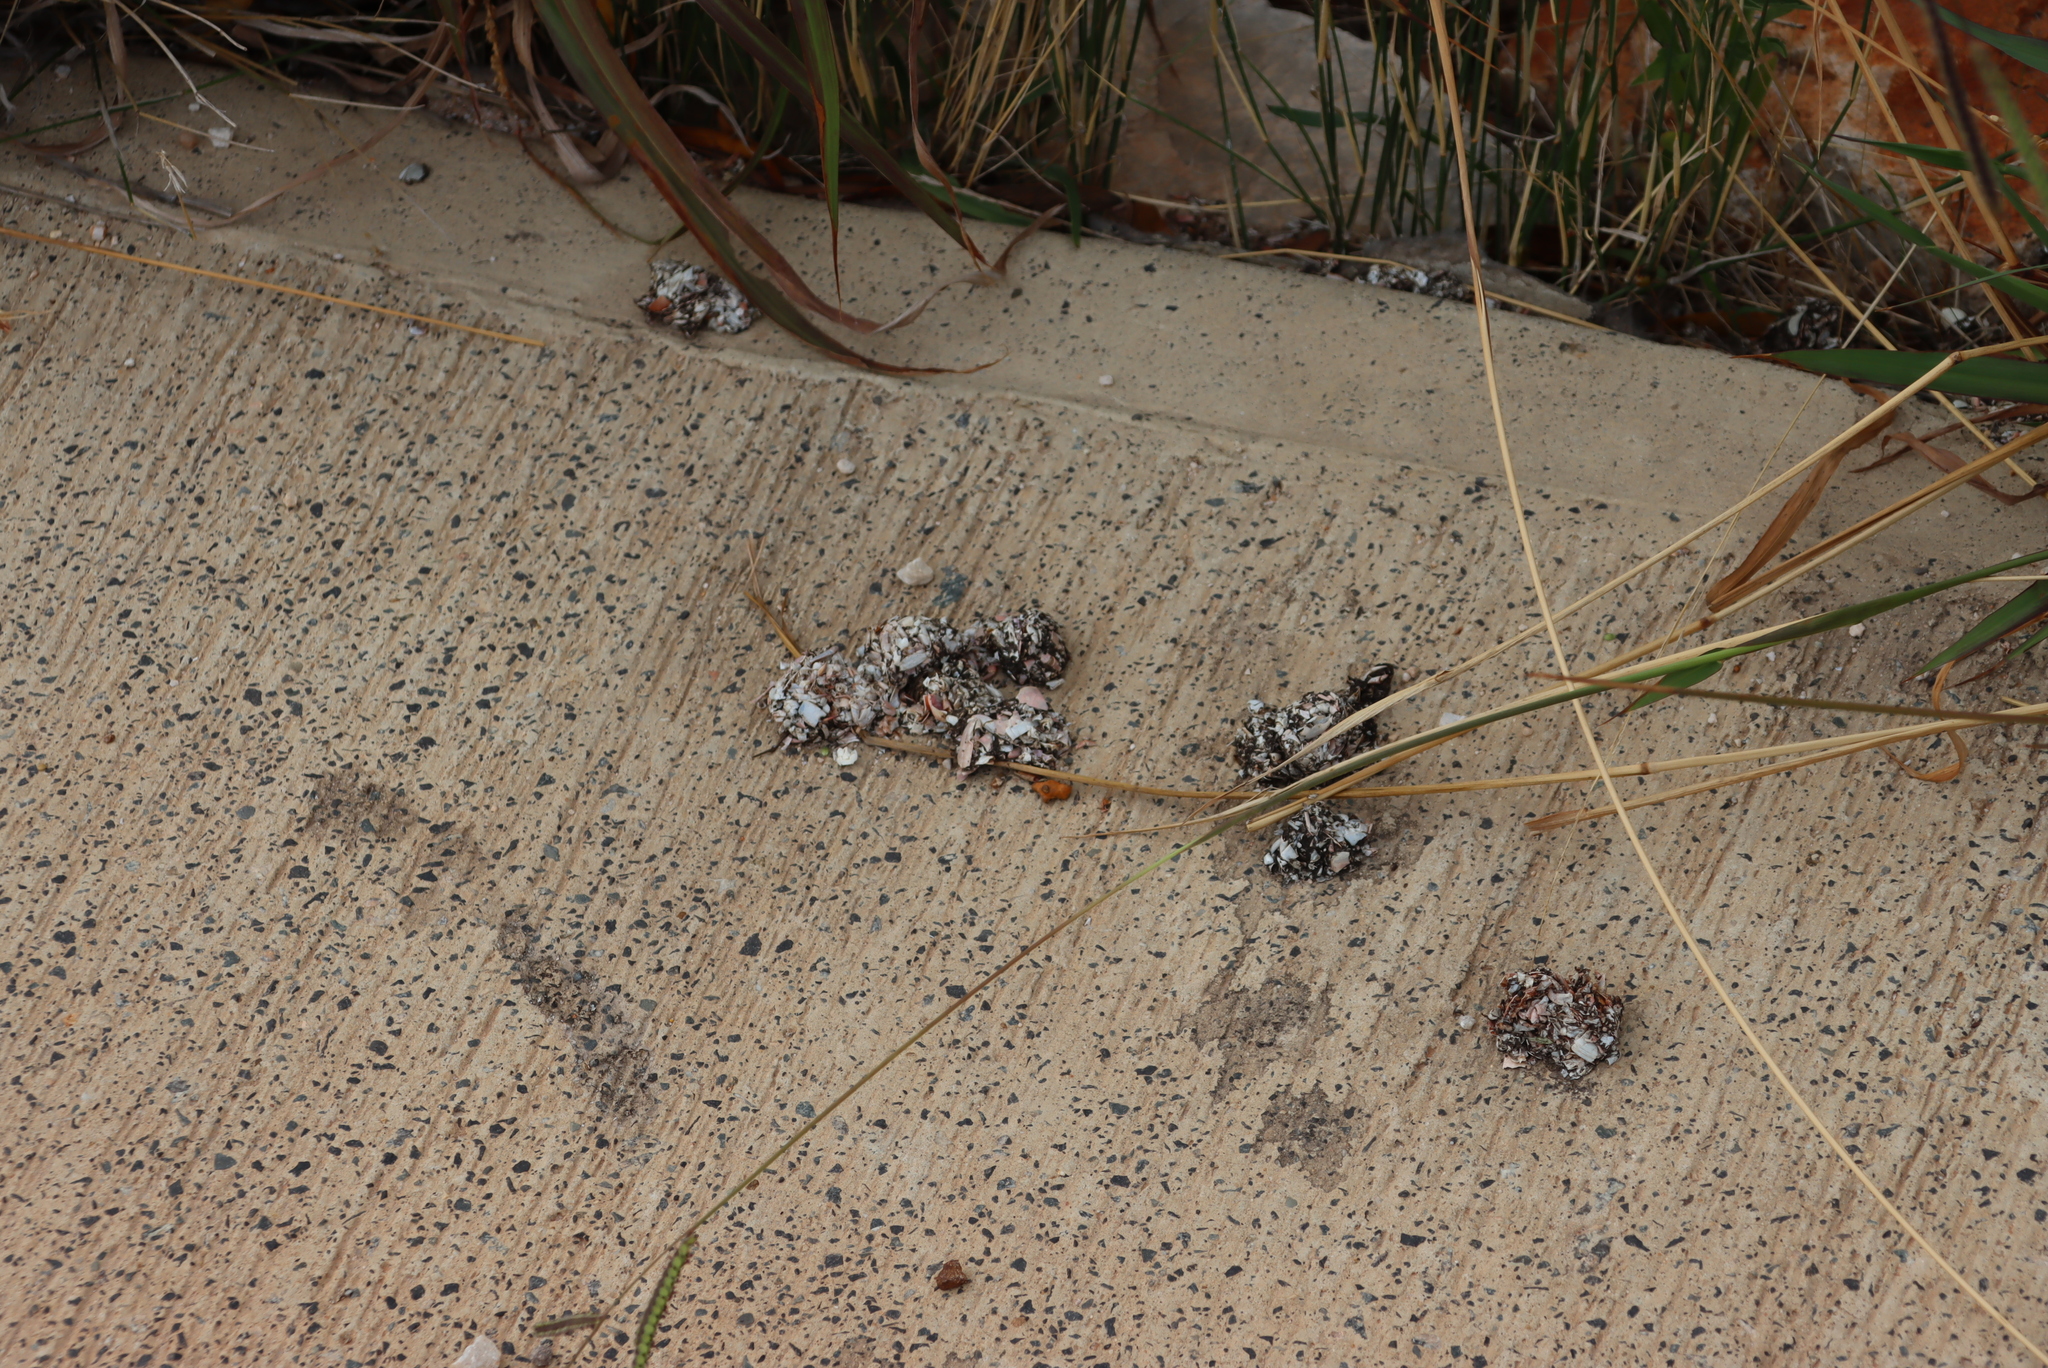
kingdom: Animalia
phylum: Chordata
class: Mammalia
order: Carnivora
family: Mustelidae
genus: Aonyx
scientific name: Aonyx capensis
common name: African clawless otter
